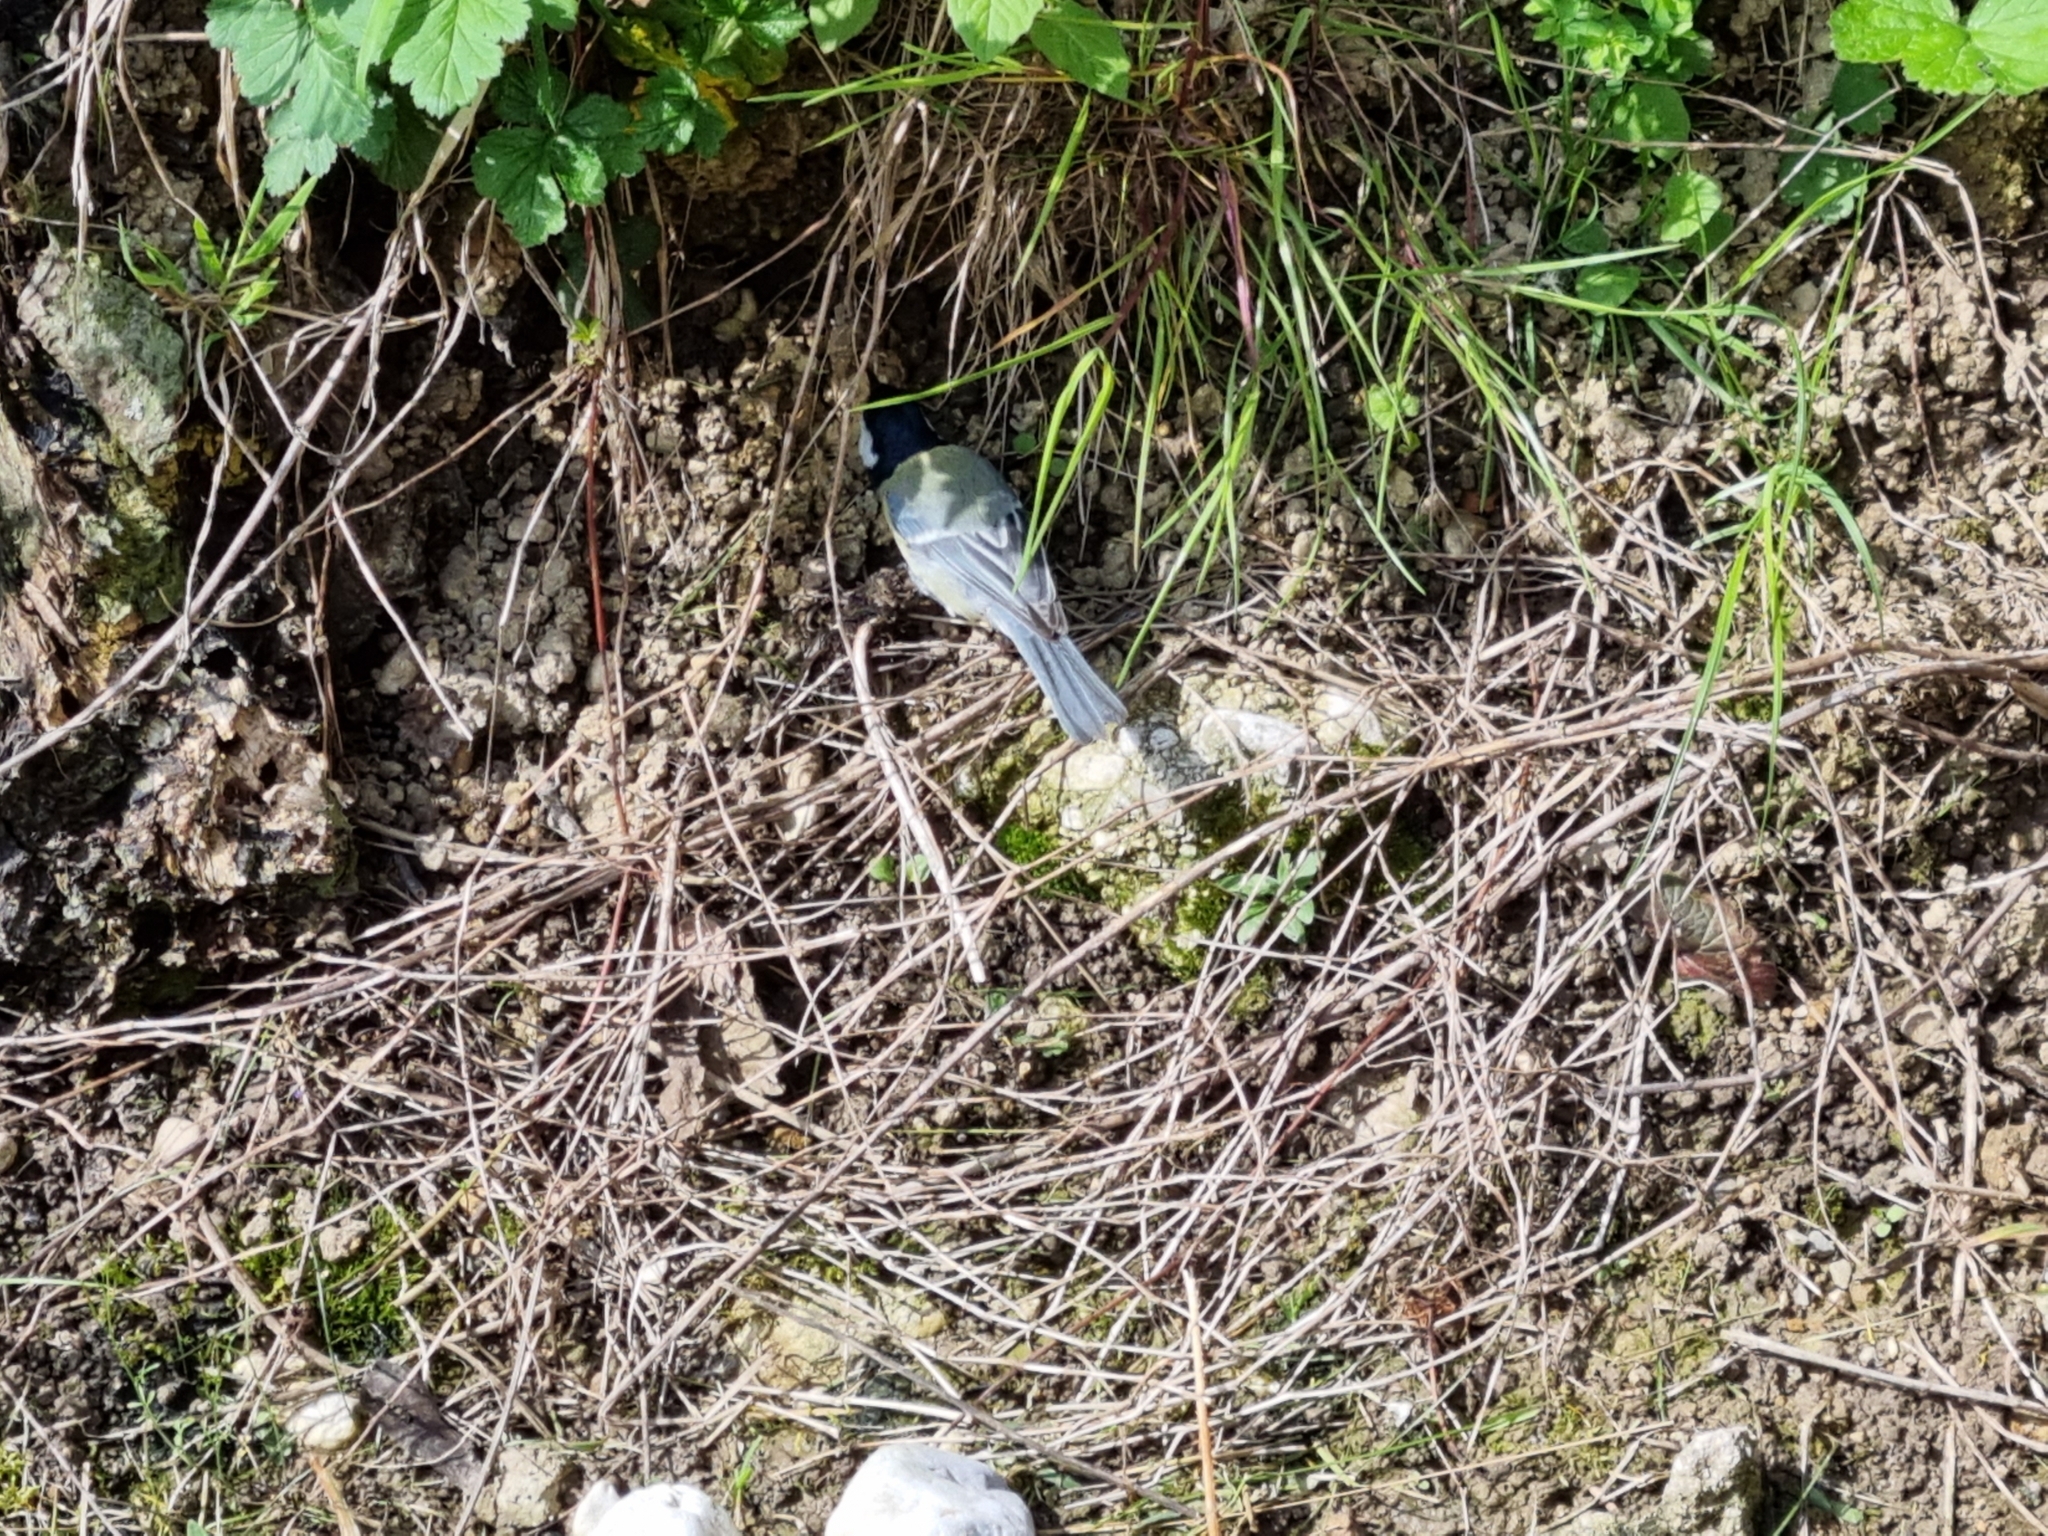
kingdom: Animalia
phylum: Chordata
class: Aves
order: Passeriformes
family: Paridae
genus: Parus
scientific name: Parus major
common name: Great tit
